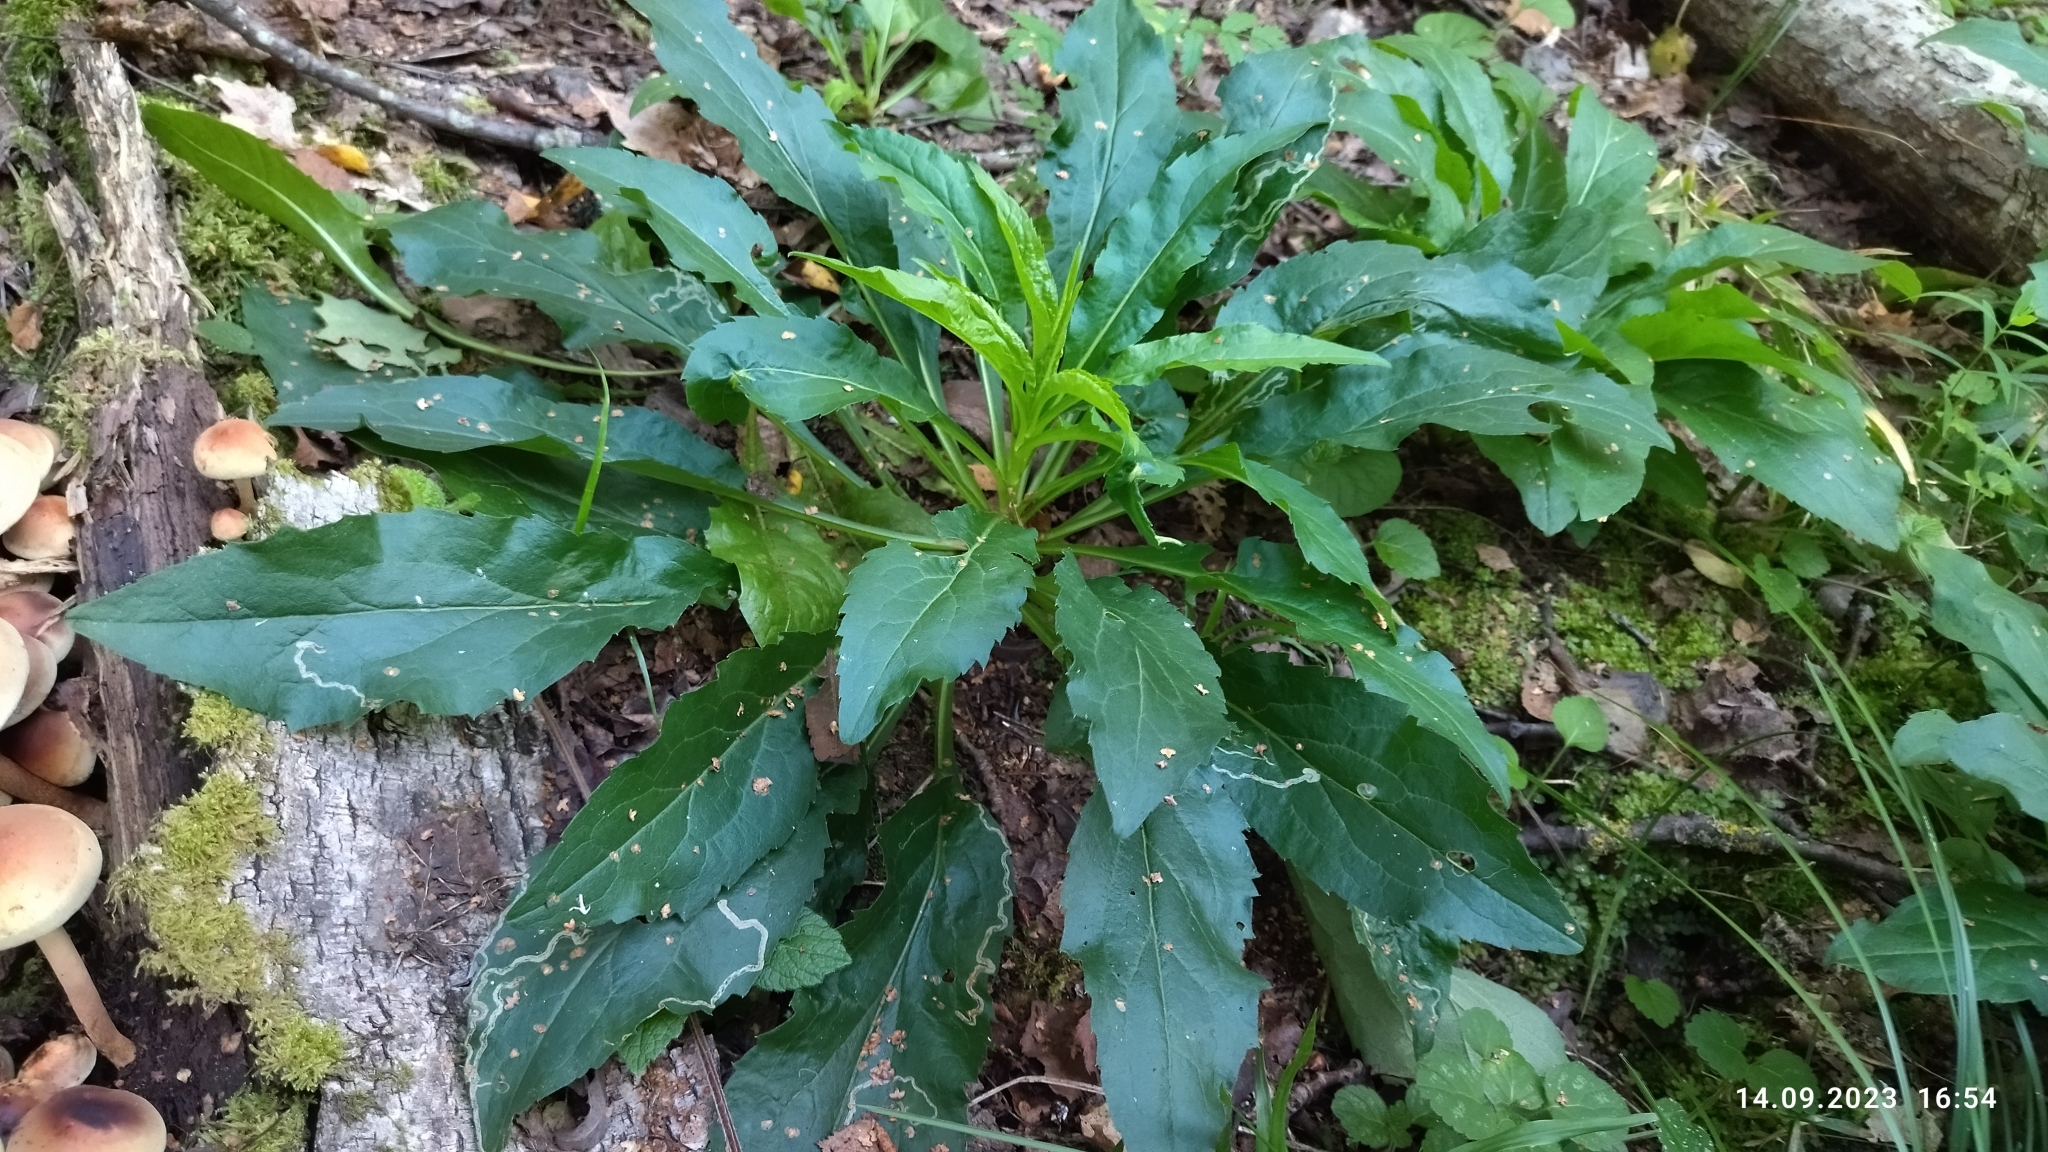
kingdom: Plantae
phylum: Tracheophyta
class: Magnoliopsida
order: Asterales
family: Asteraceae
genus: Solidago
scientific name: Solidago virgaurea
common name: Goldenrod
